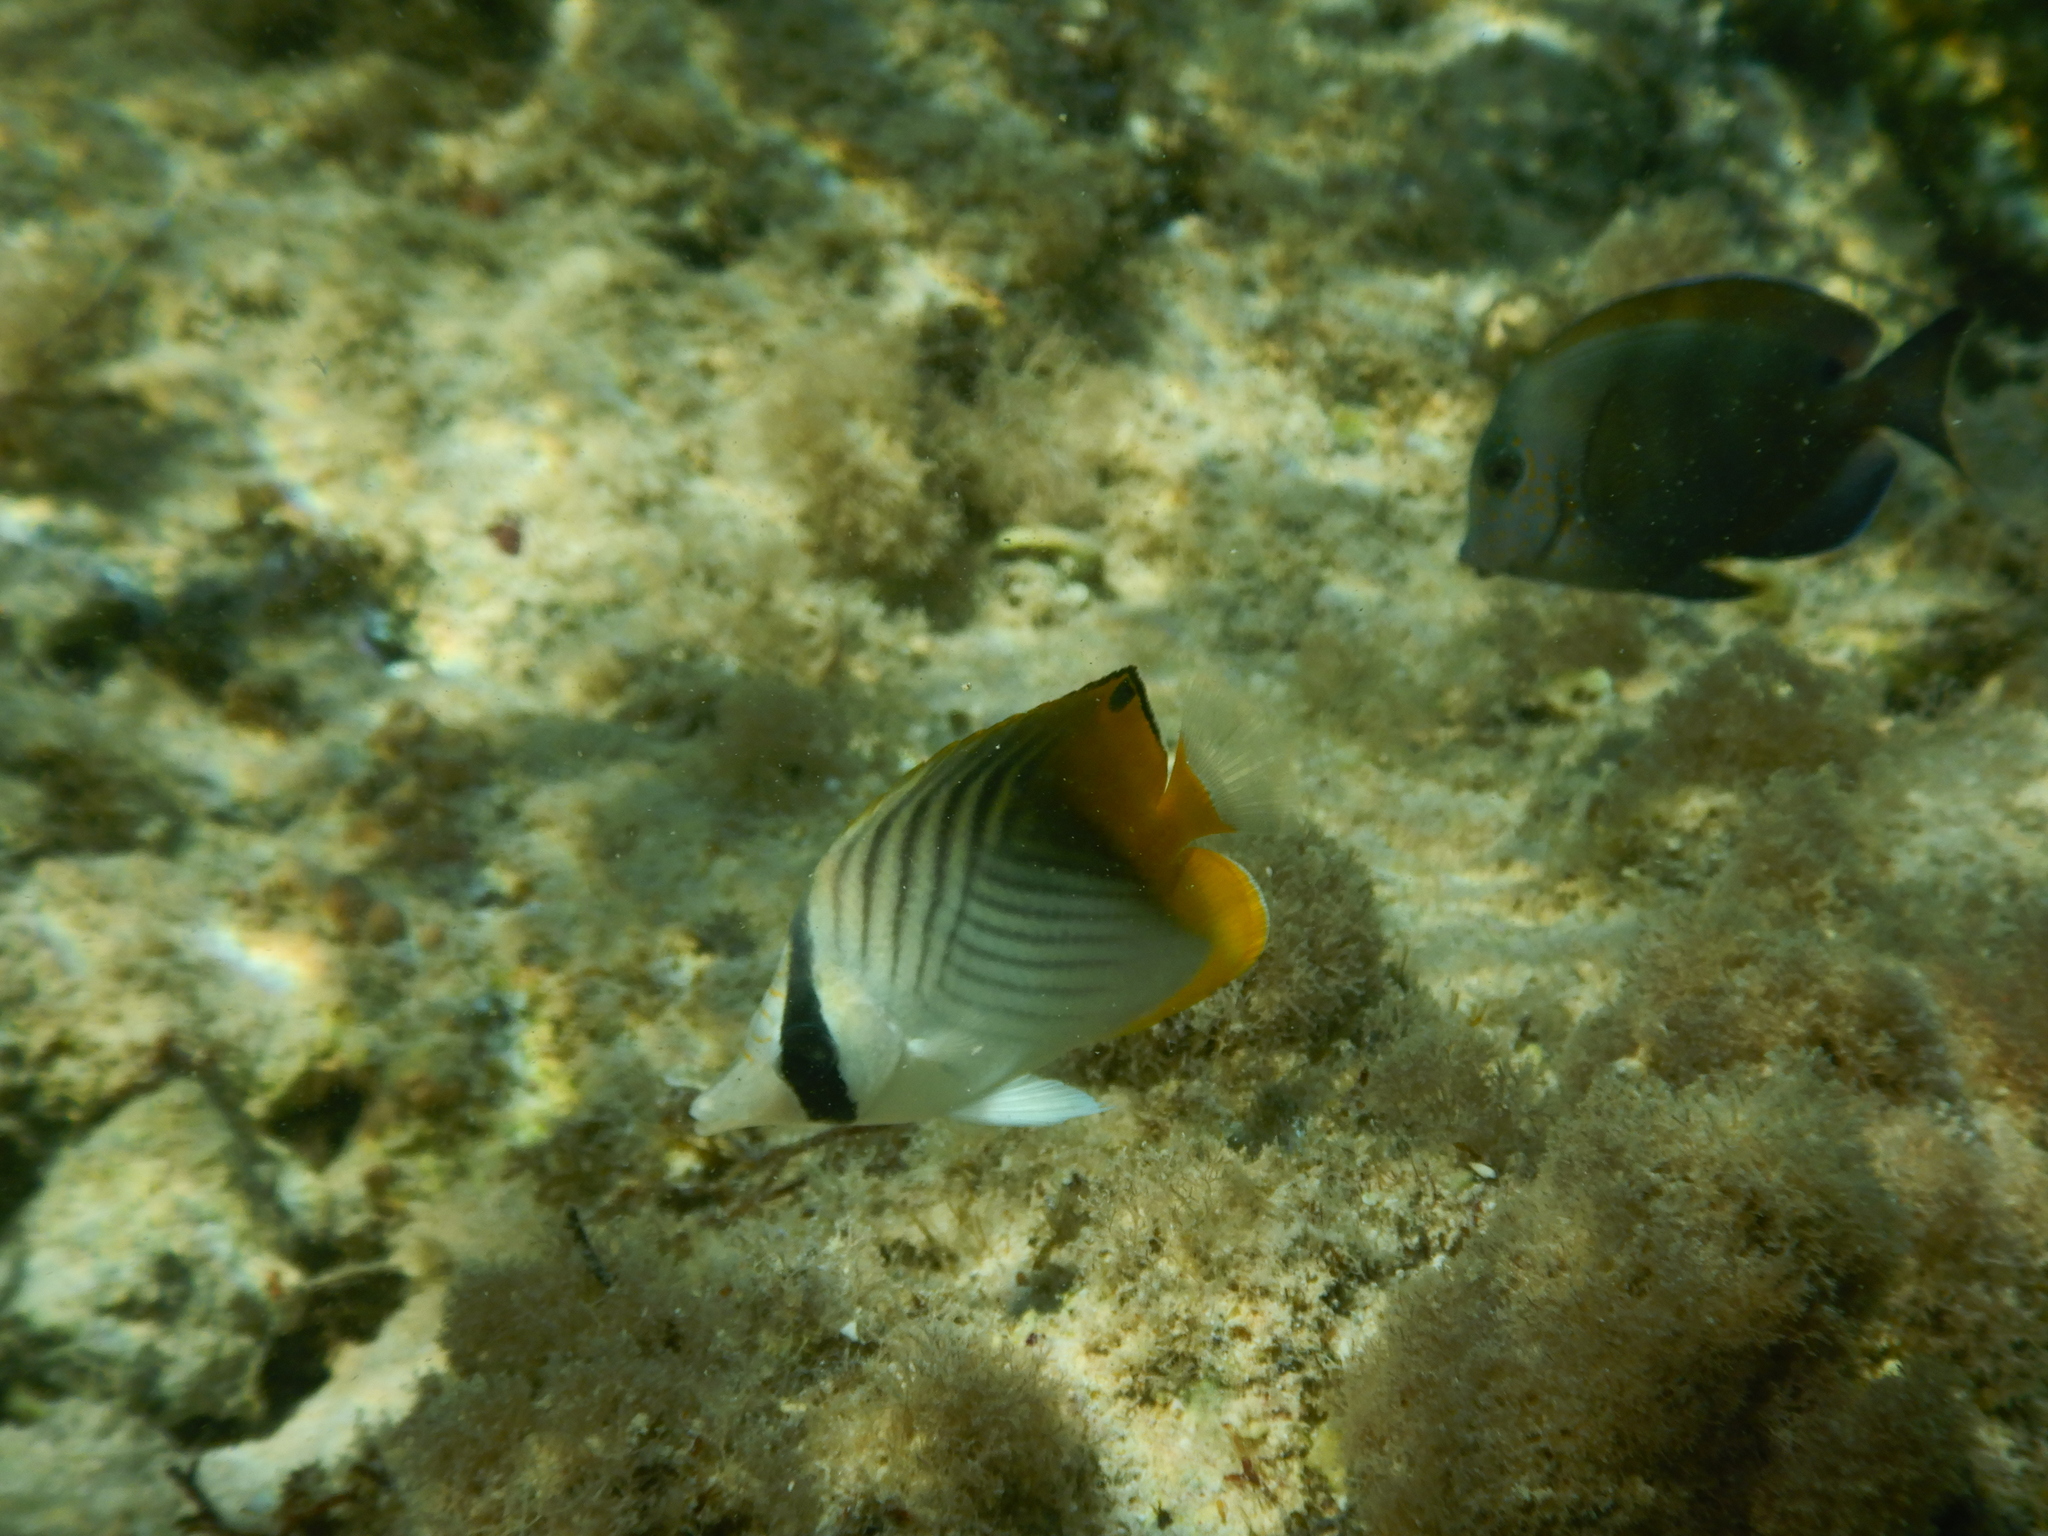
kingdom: Animalia
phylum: Chordata
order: Perciformes
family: Chaetodontidae
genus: Chaetodon
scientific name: Chaetodon auriga
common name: Threadfin butterflyfish
